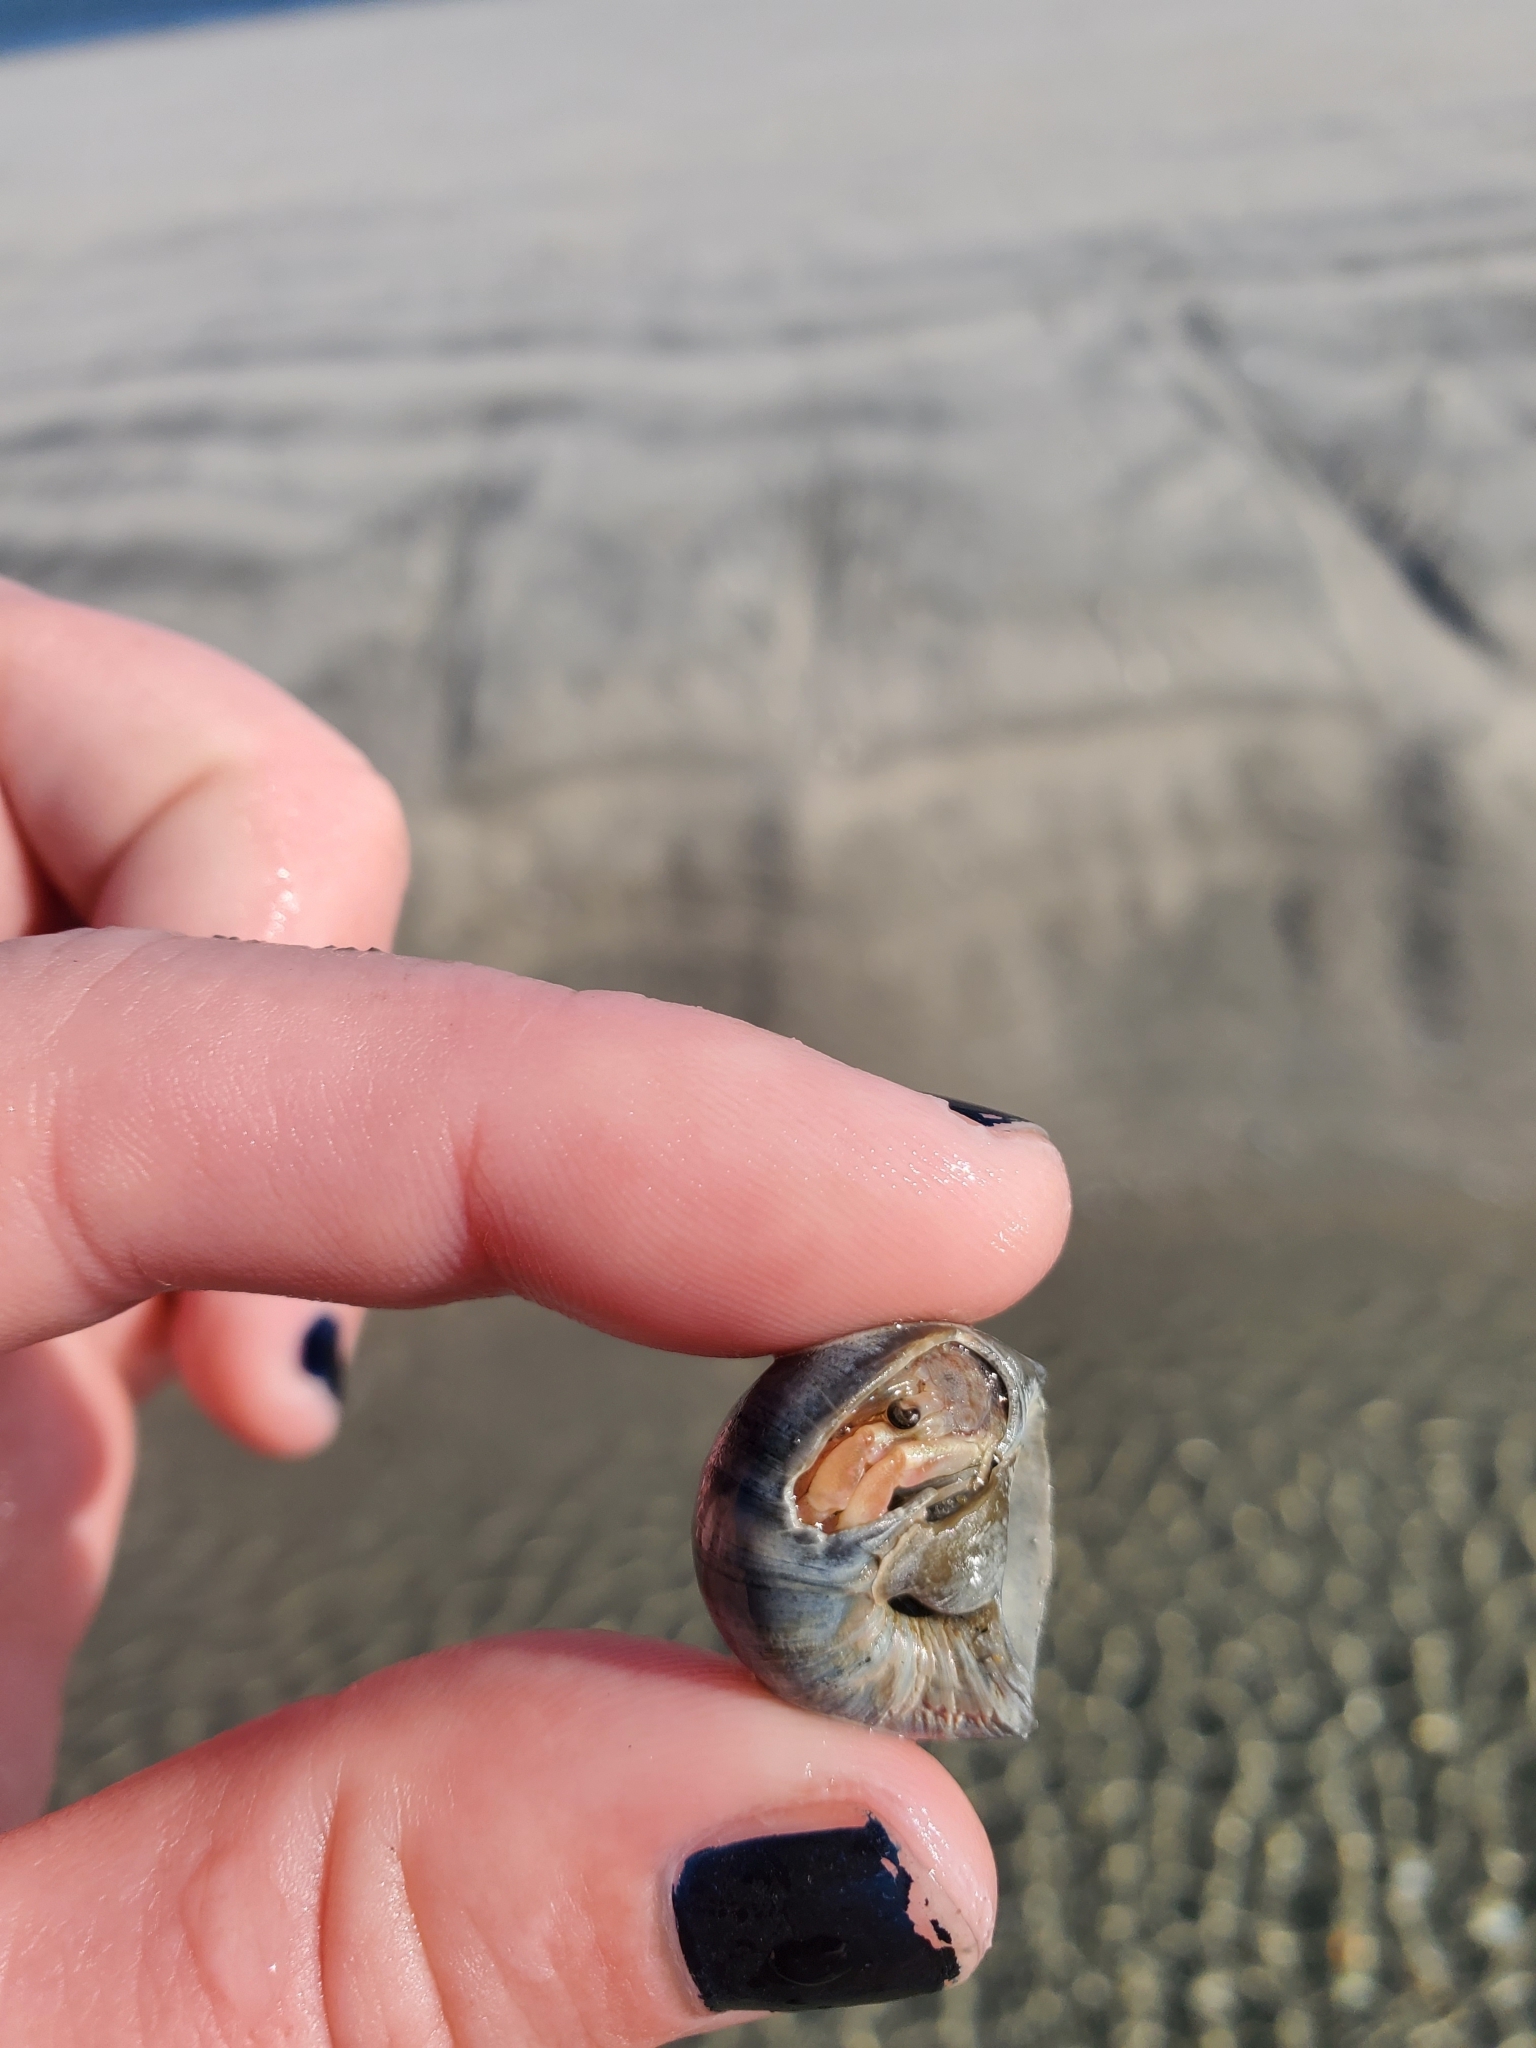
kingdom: Animalia
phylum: Mollusca
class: Gastropoda
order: Littorinimorpha
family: Naticidae
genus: Neverita
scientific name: Neverita duplicata
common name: Lobed moonsnail
